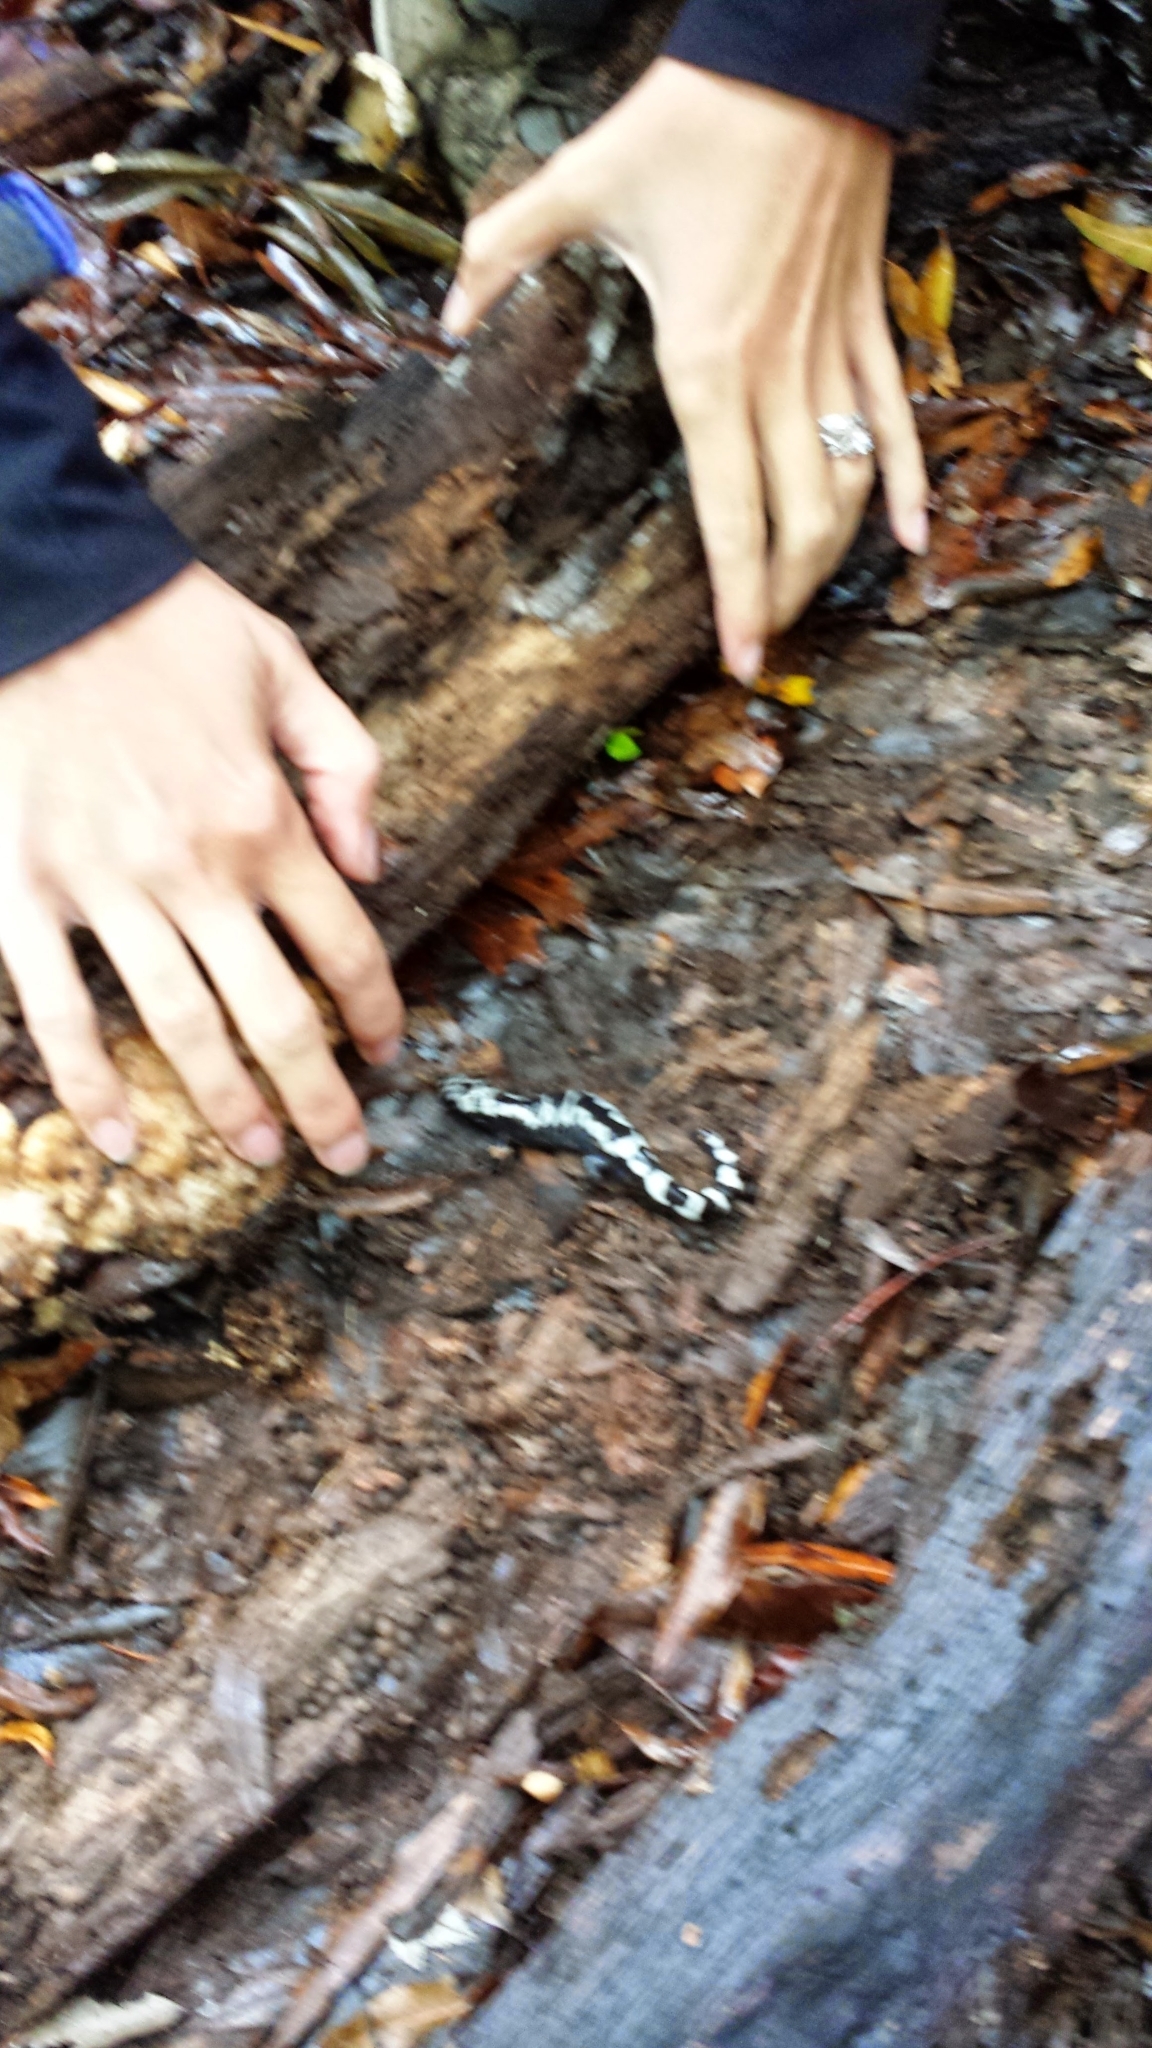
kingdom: Animalia
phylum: Chordata
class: Amphibia
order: Caudata
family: Ambystomatidae
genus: Ambystoma
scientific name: Ambystoma opacum
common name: Marbled salamander
